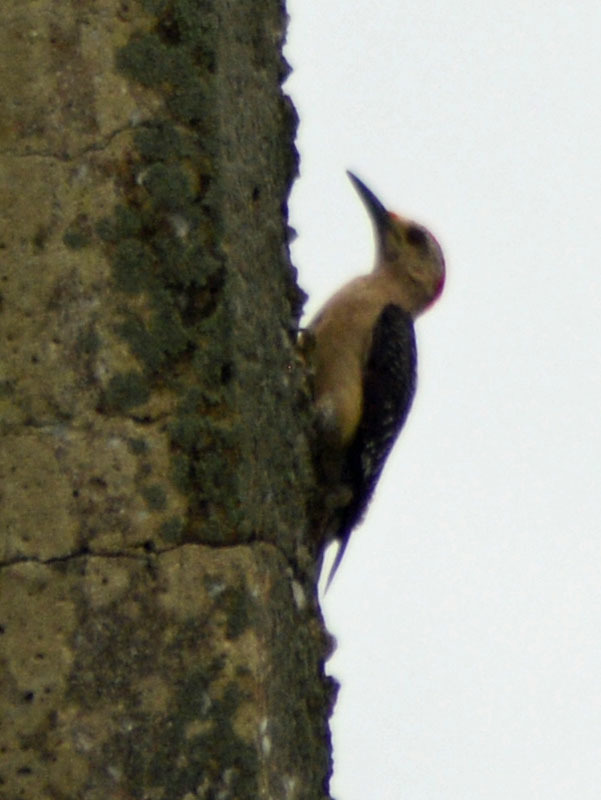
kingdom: Animalia
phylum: Chordata
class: Aves
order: Piciformes
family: Picidae
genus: Melanerpes
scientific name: Melanerpes aurifrons
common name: Golden-fronted woodpecker
